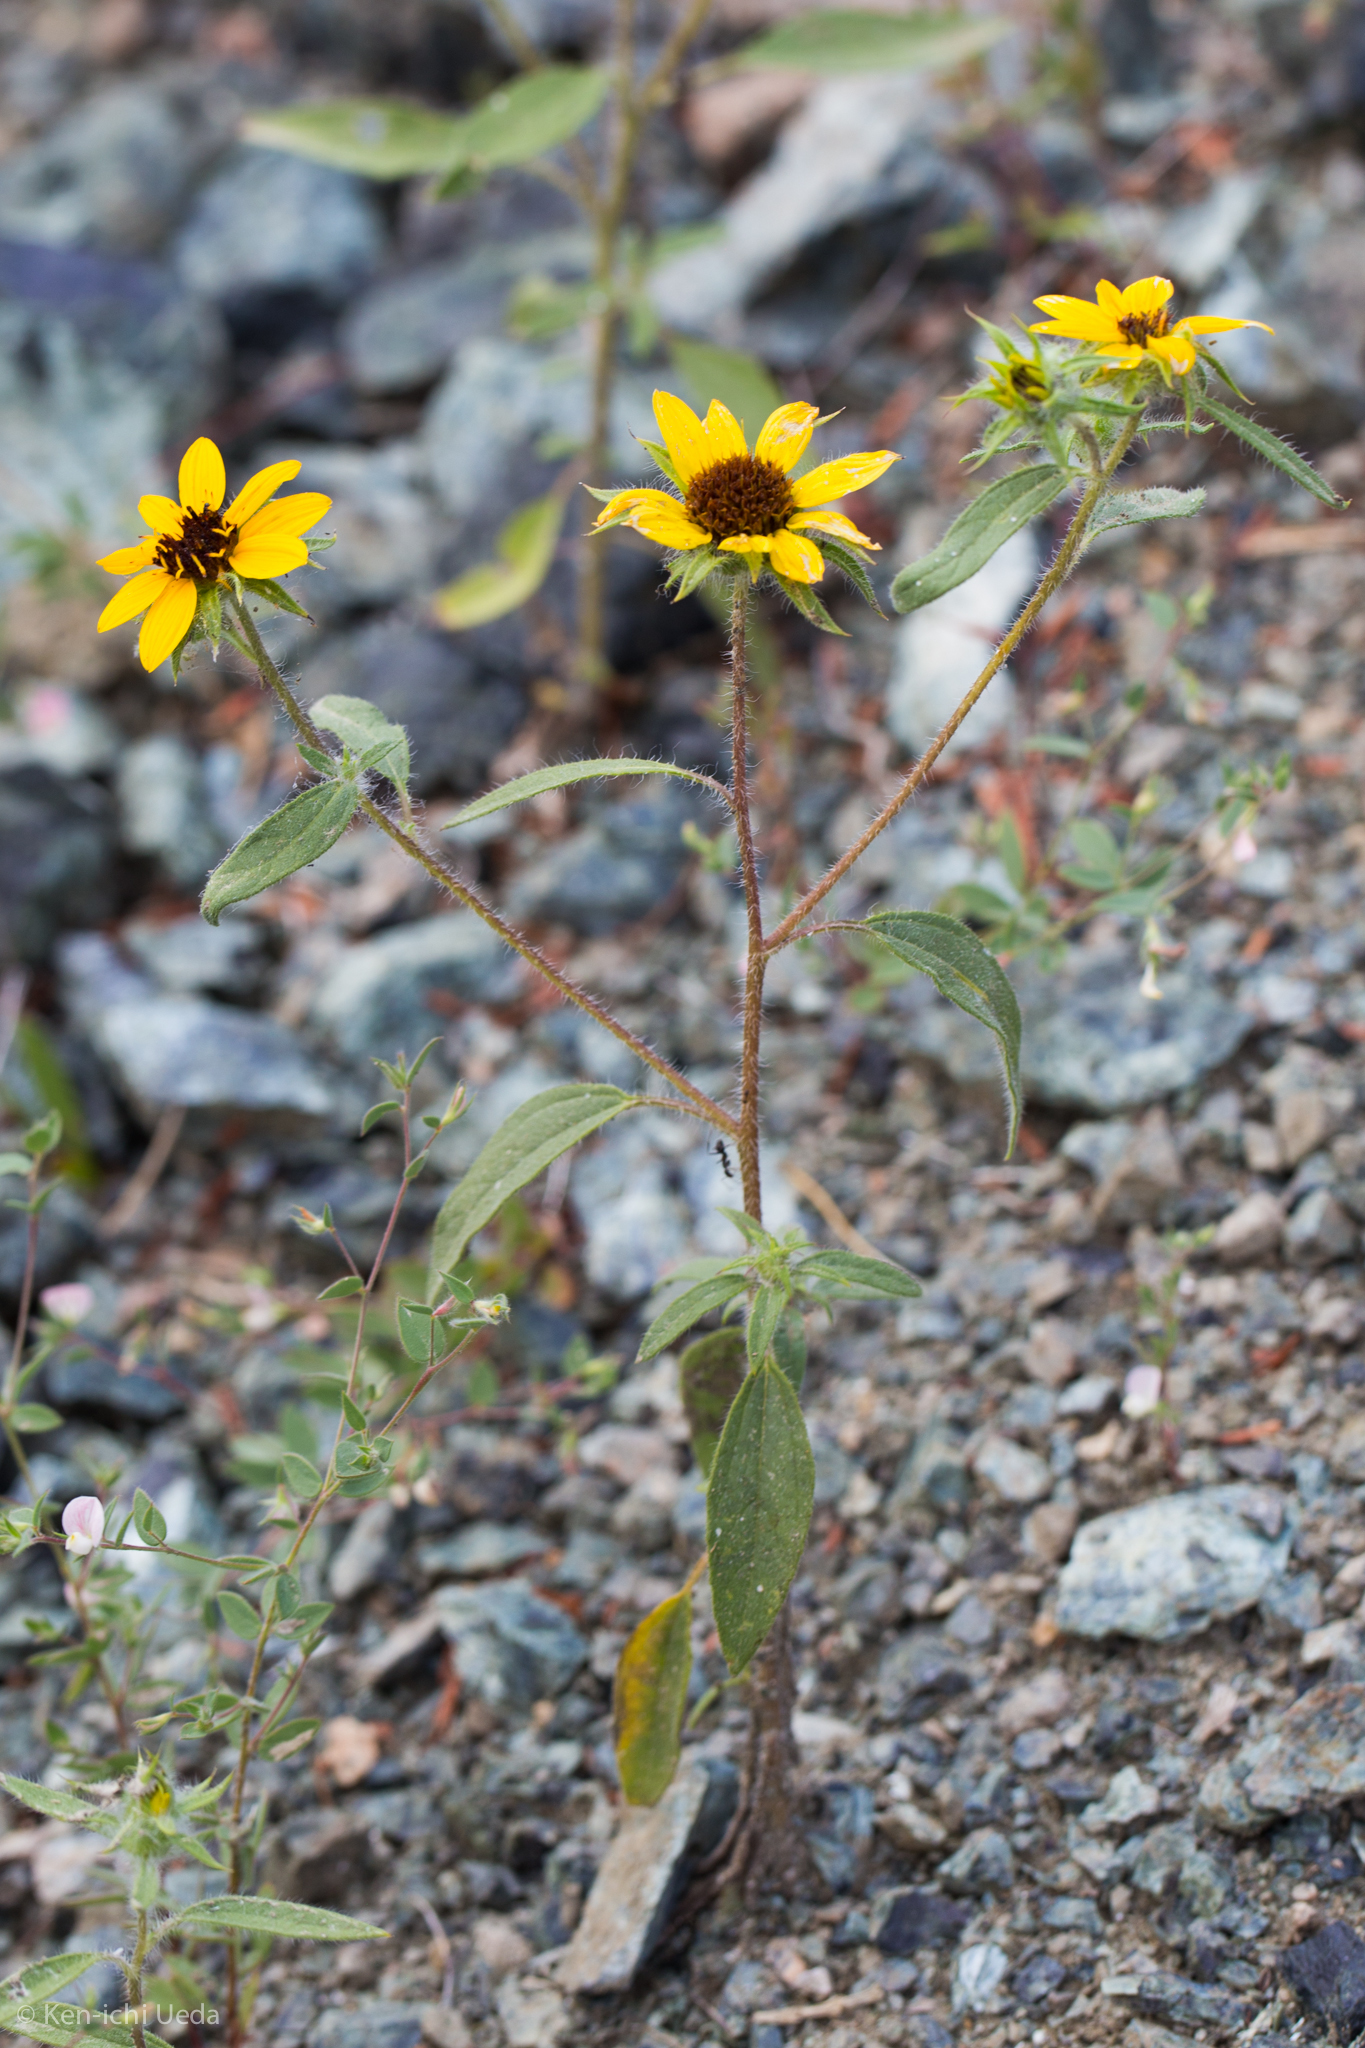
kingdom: Plantae
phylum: Tracheophyta
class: Magnoliopsida
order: Asterales
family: Asteraceae
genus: Helianthus
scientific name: Helianthus exilis
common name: Serpentine sunflower
